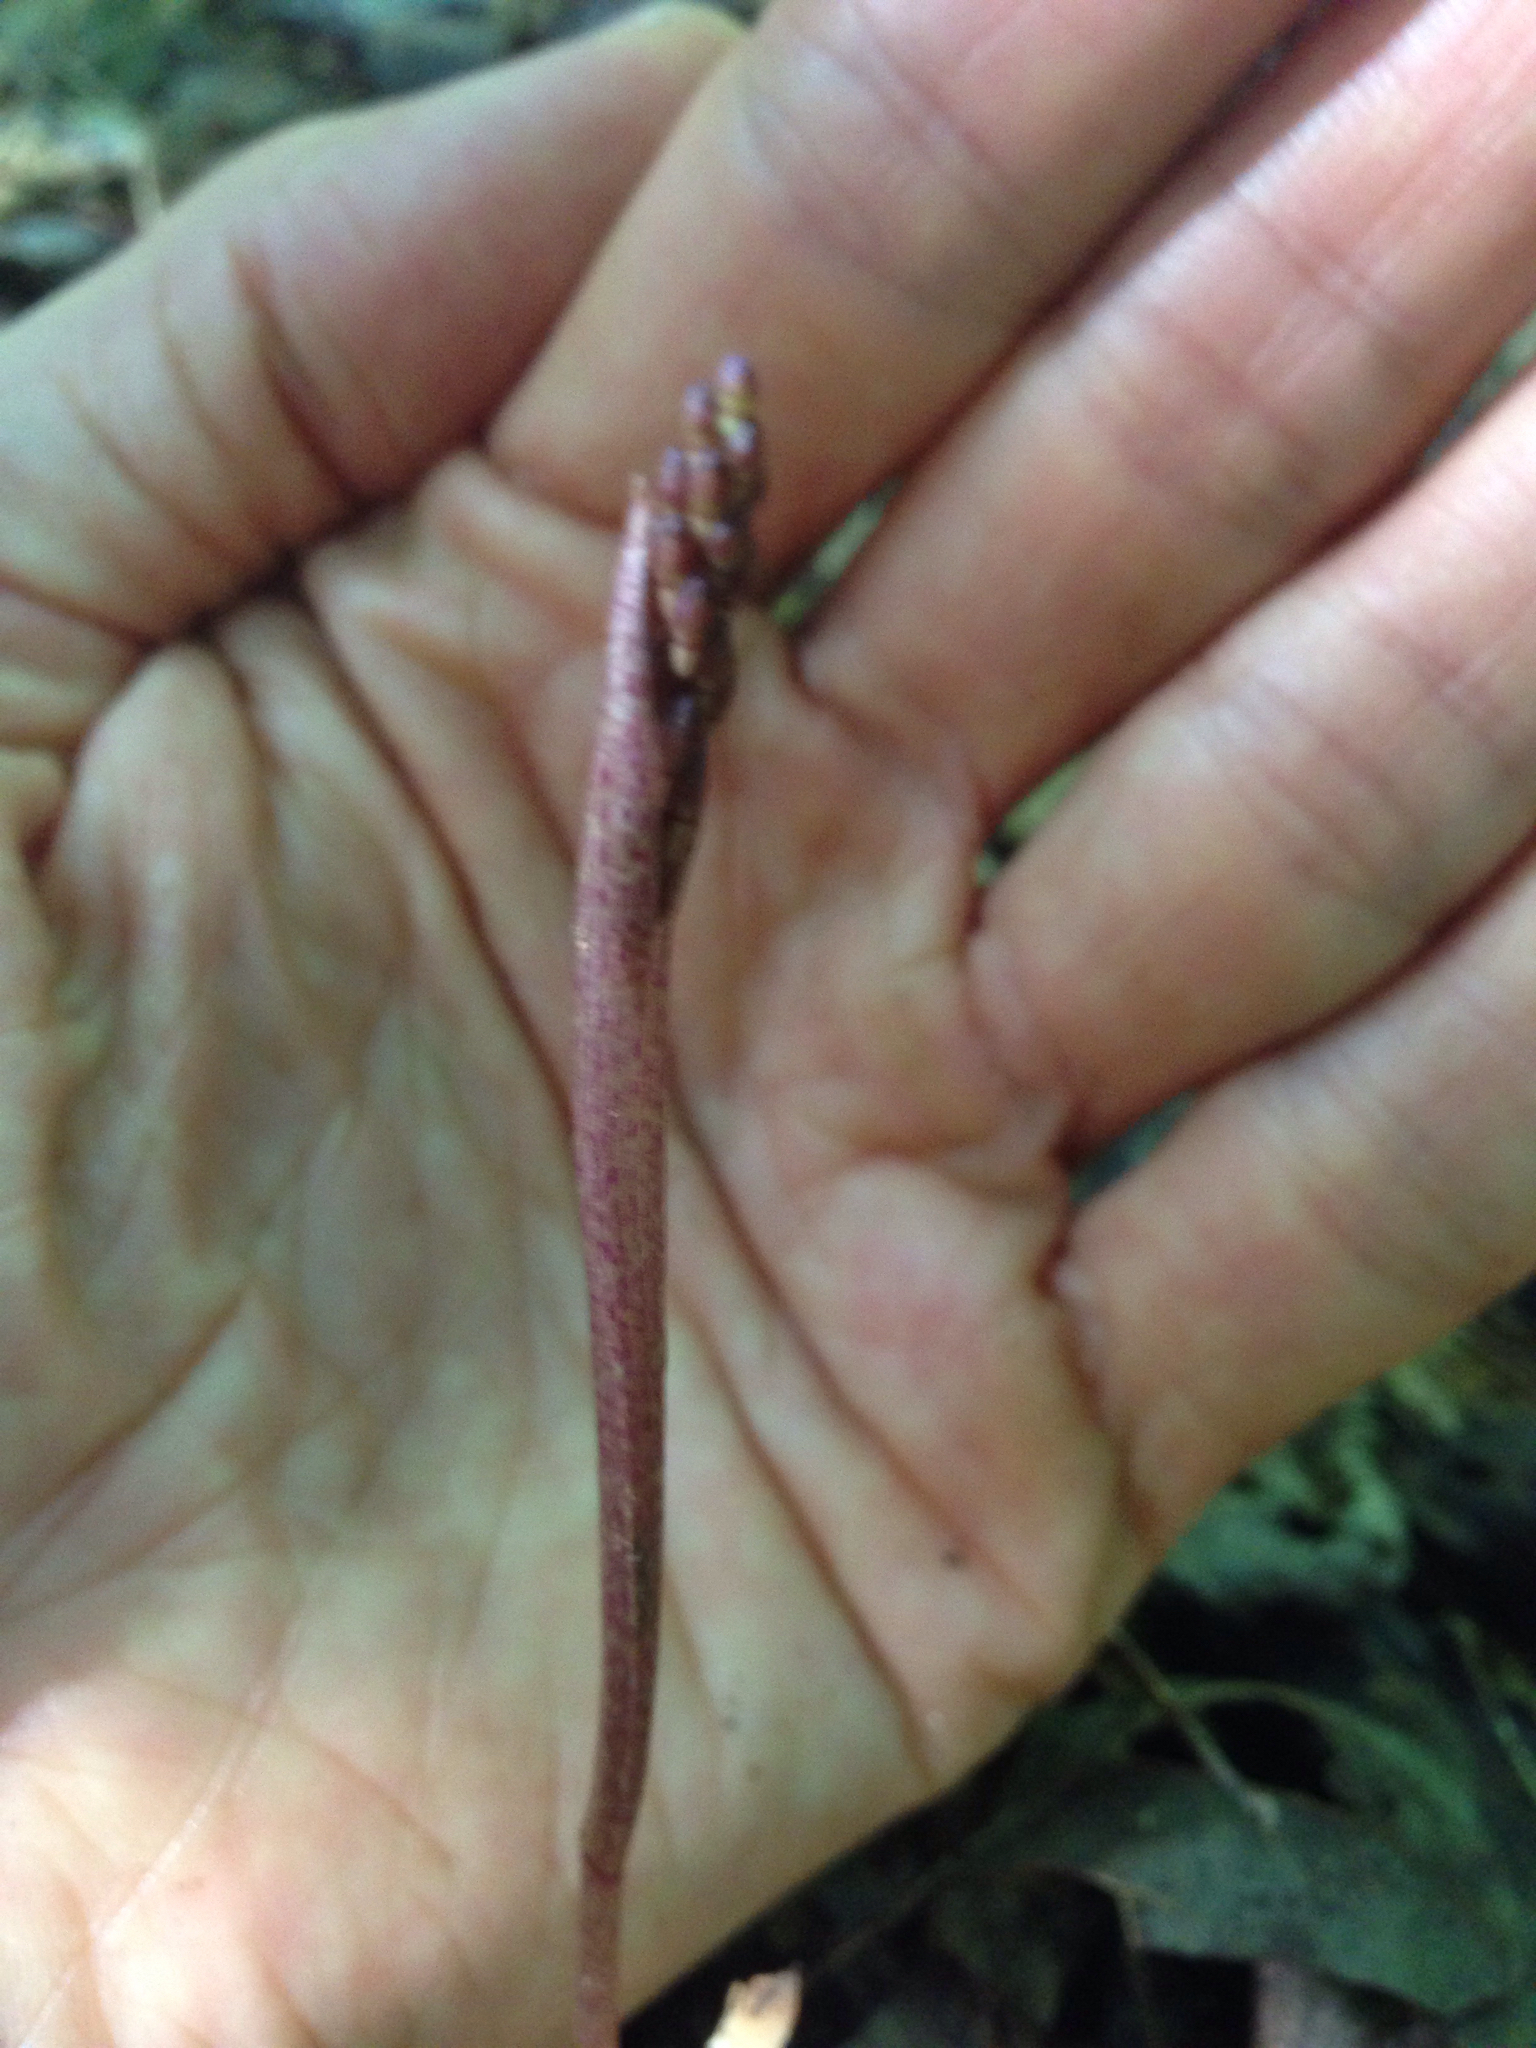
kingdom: Plantae
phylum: Tracheophyta
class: Liliopsida
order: Asparagales
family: Orchidaceae
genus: Tipularia
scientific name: Tipularia discolor
